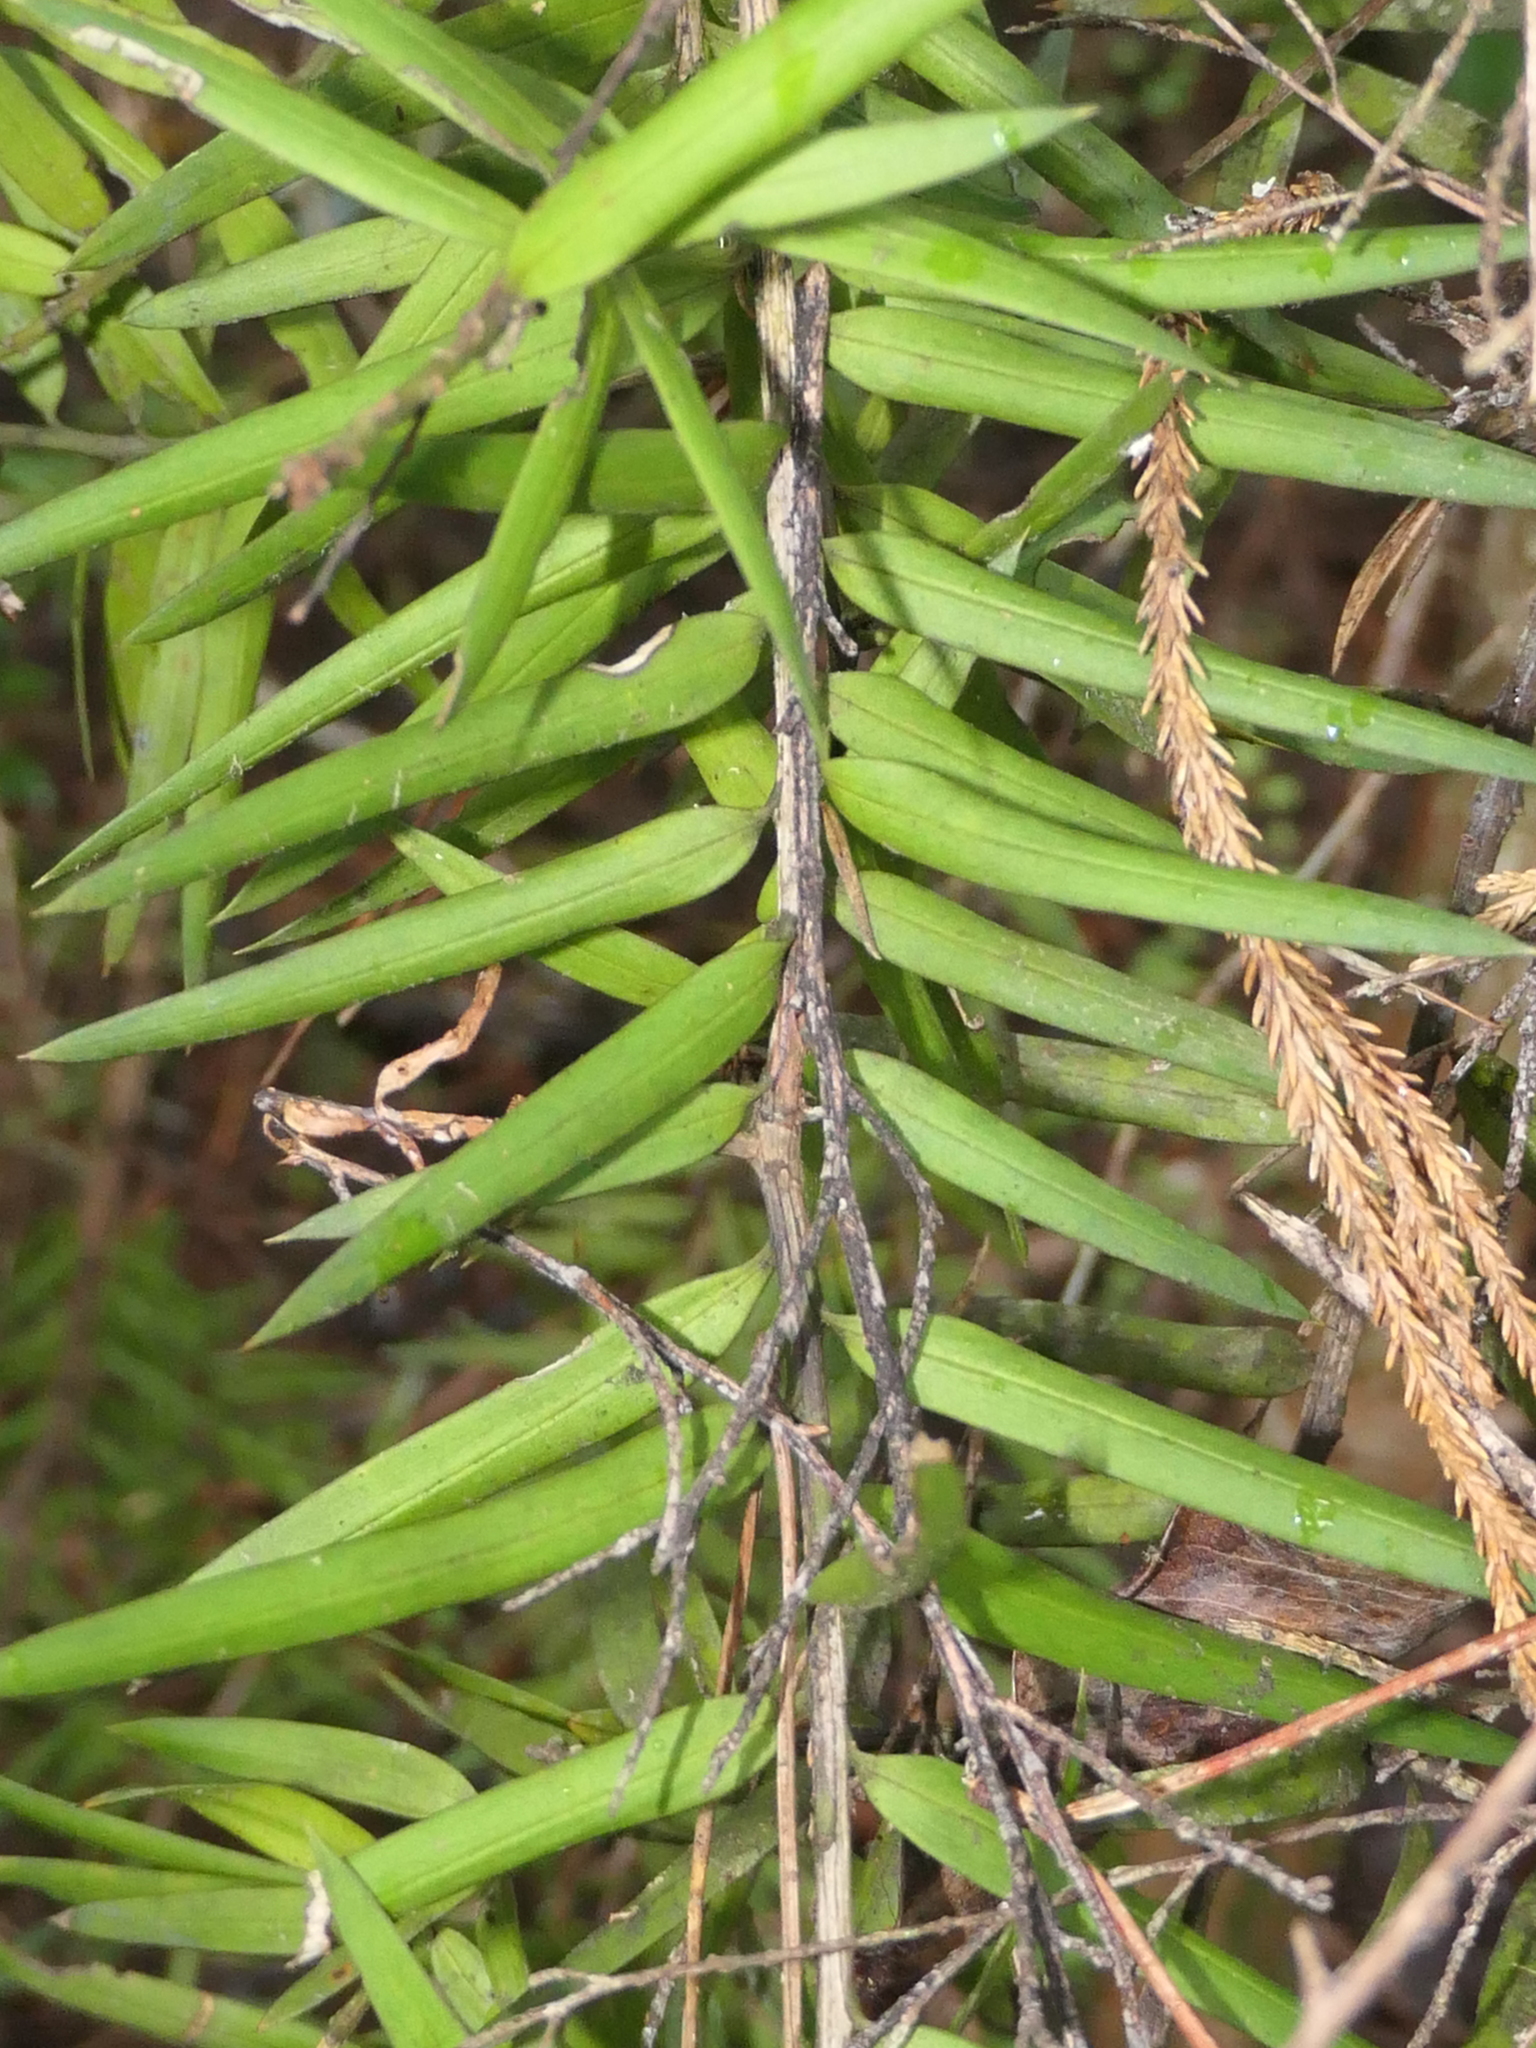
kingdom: Plantae
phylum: Tracheophyta
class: Pinopsida
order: Pinales
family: Podocarpaceae
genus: Podocarpus
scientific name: Podocarpus totara
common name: Totara
